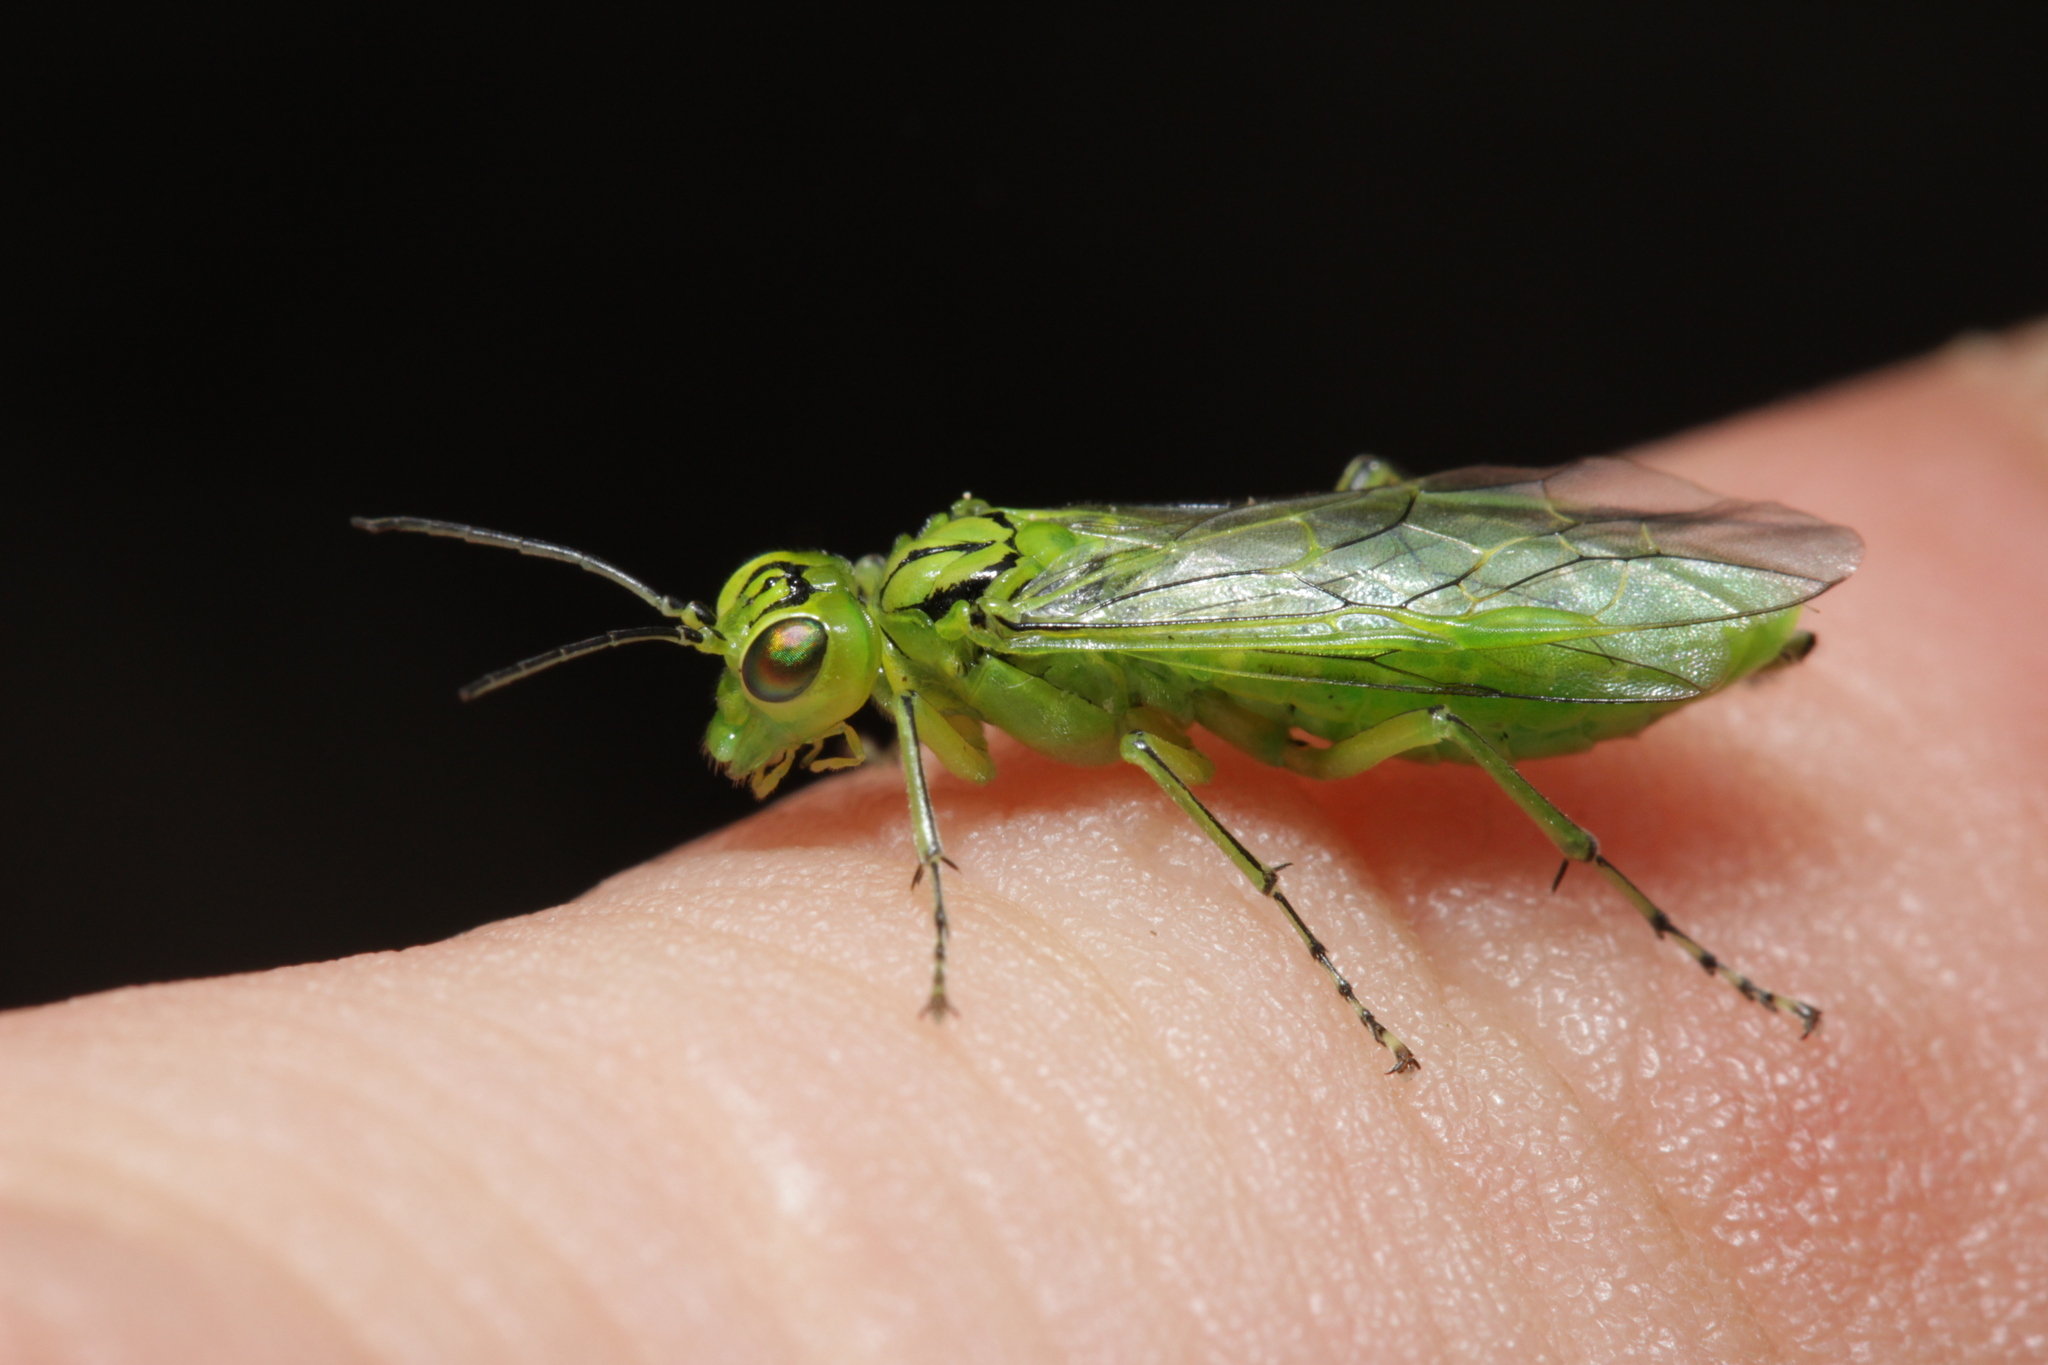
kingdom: Animalia
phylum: Arthropoda
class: Insecta
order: Hymenoptera
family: Tenthredinidae
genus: Rhogogaster
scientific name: Rhogogaster punctulata
